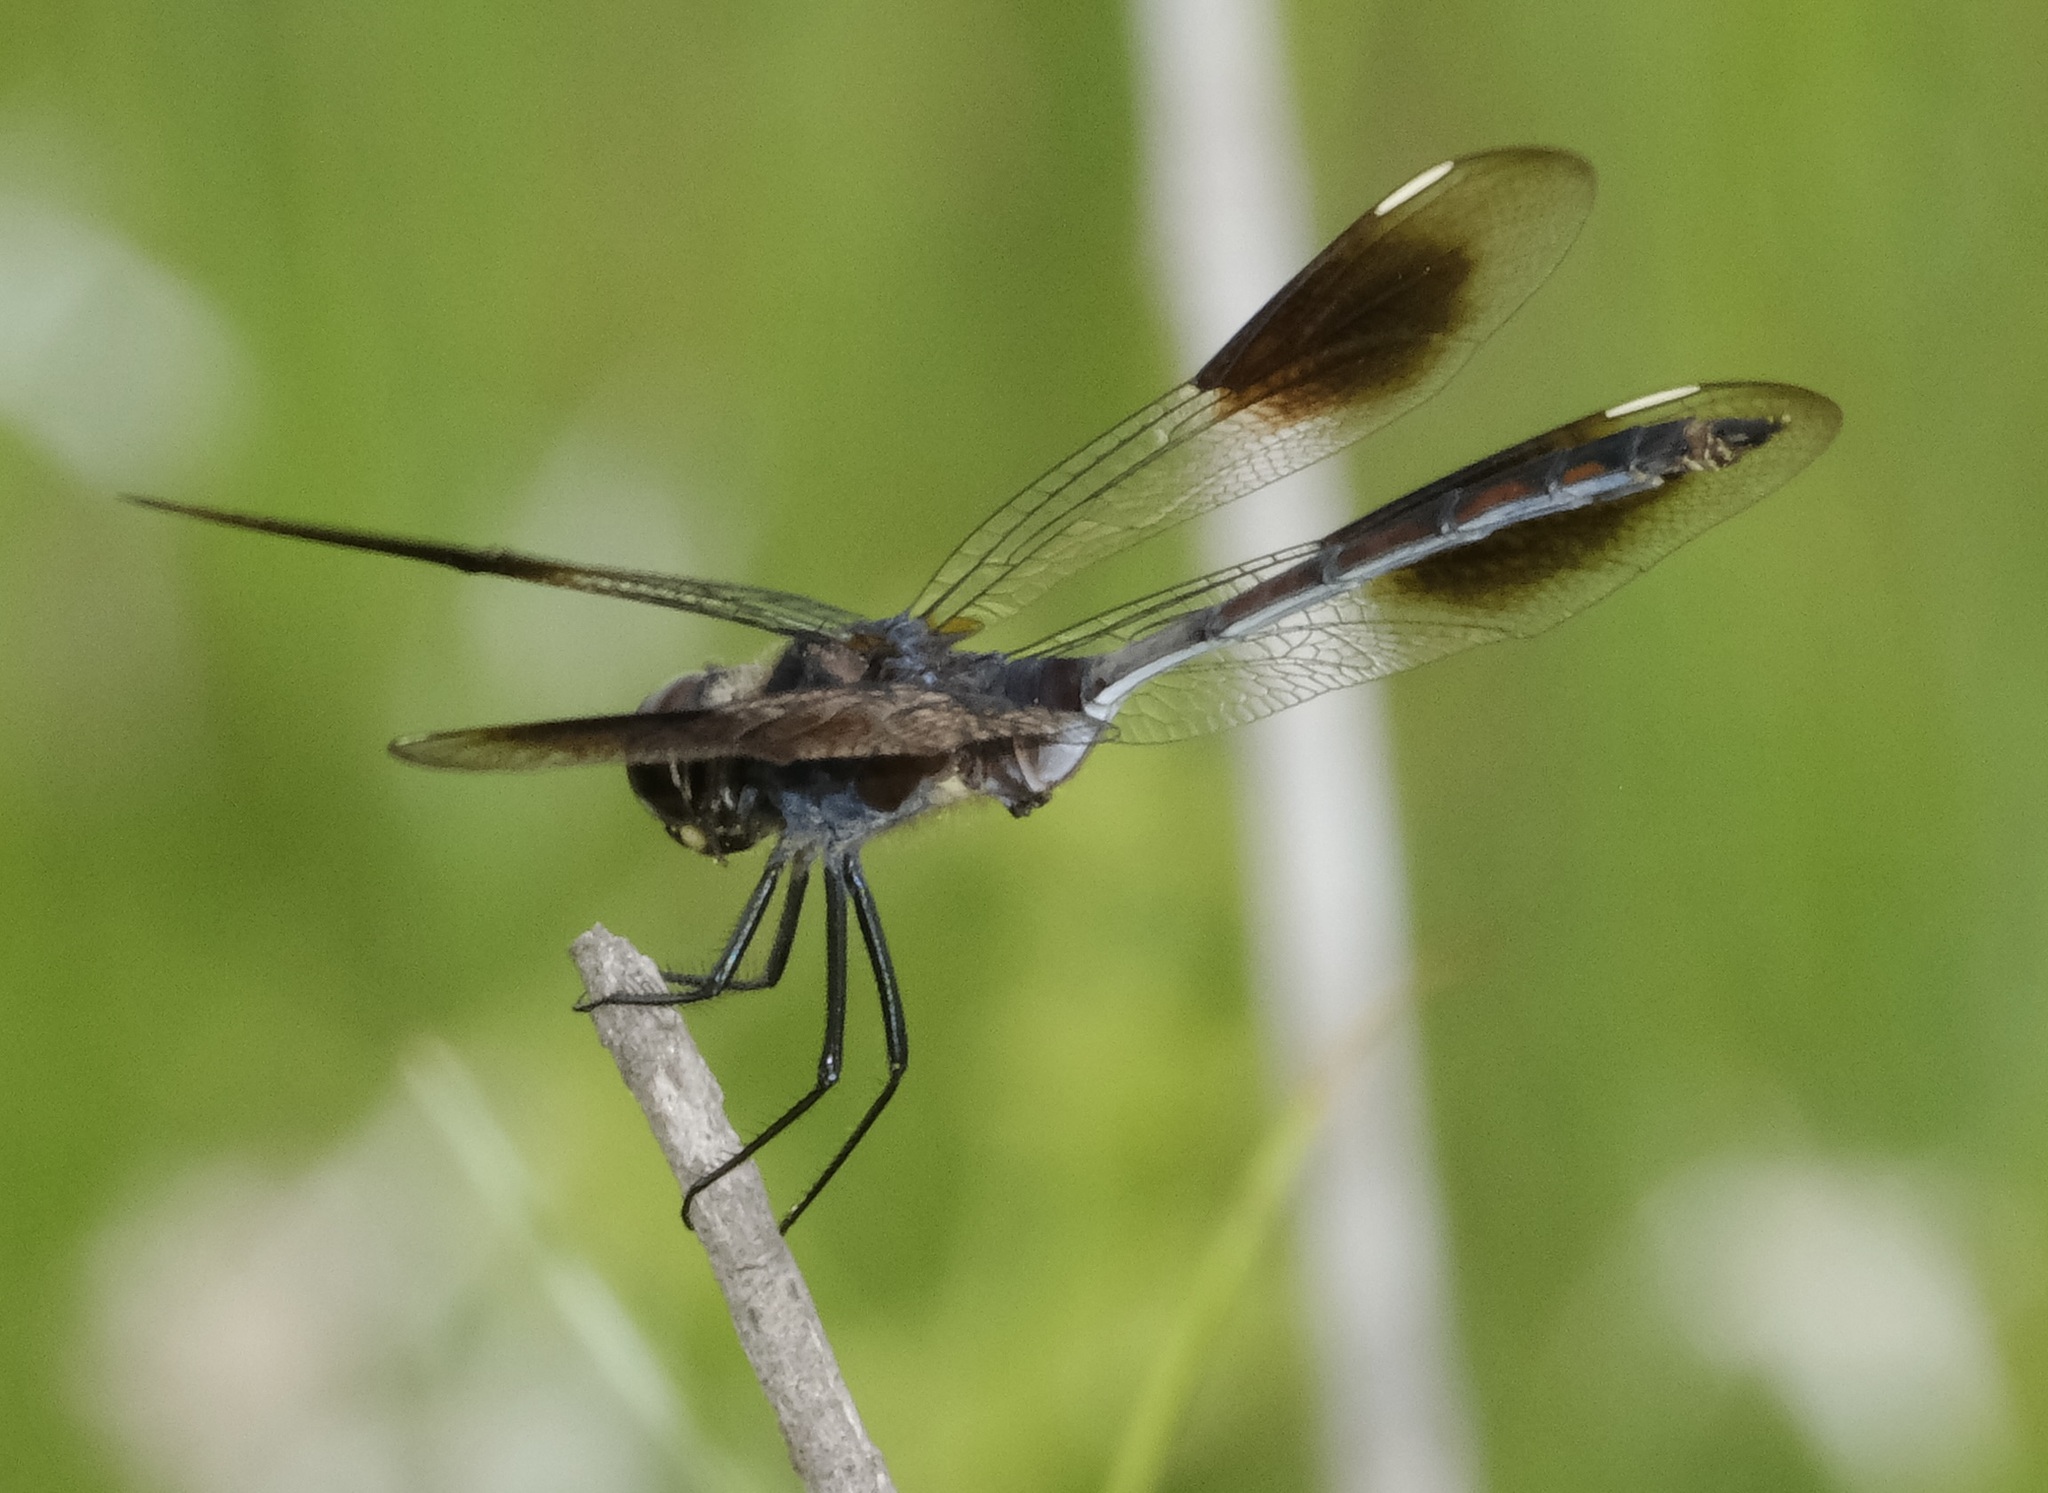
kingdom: Animalia
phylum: Arthropoda
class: Insecta
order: Odonata
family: Libellulidae
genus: Brachymesia
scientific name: Brachymesia gravida
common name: Four-spotted pennant
